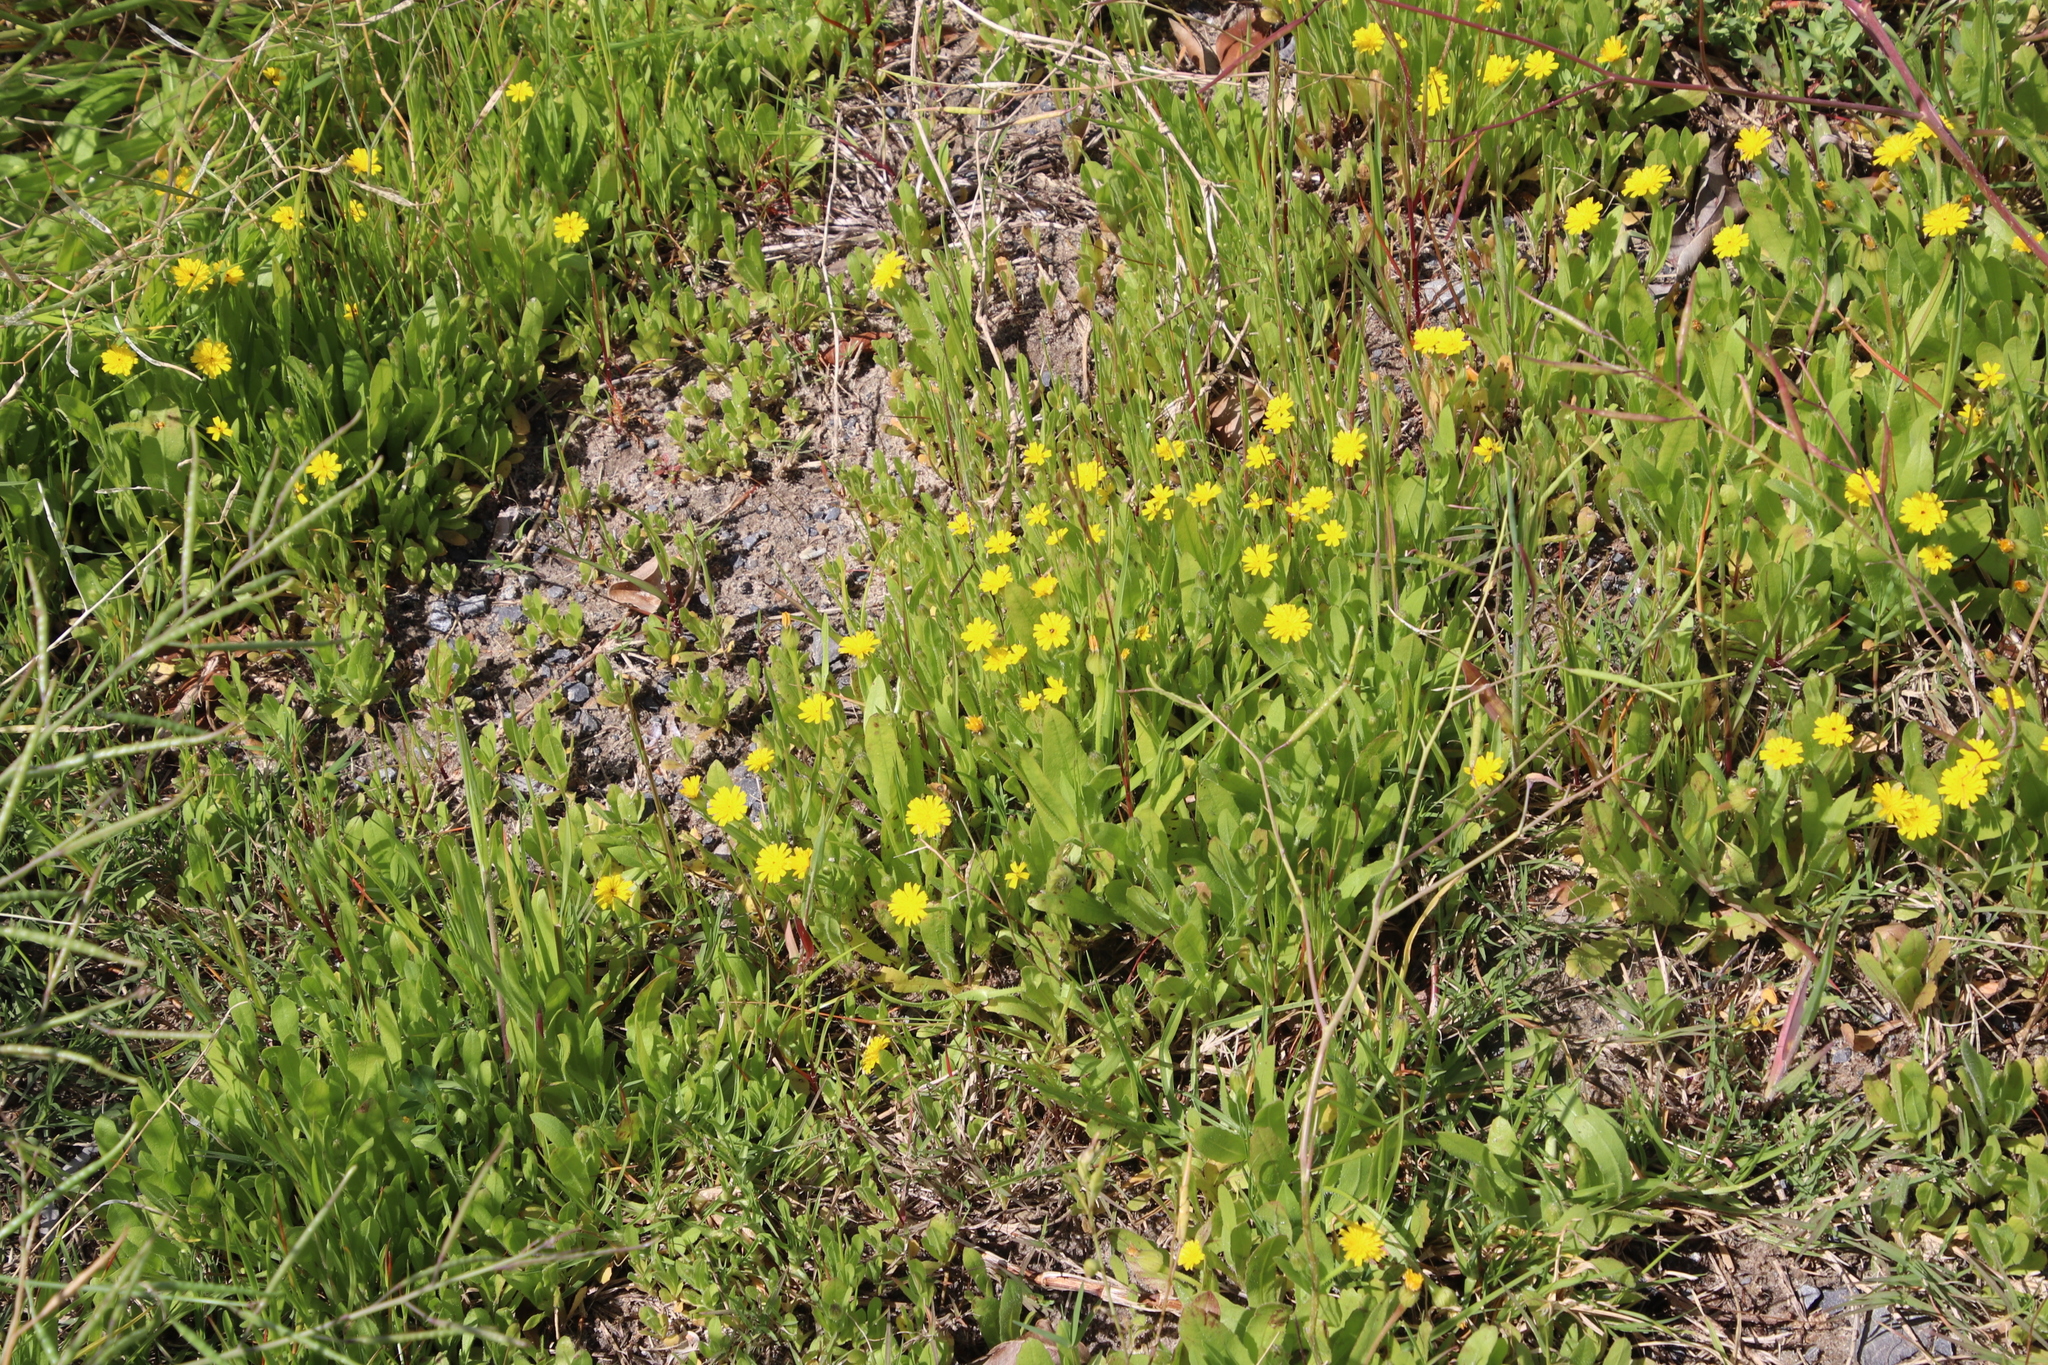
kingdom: Plantae
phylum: Tracheophyta
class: Magnoliopsida
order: Asterales
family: Asteraceae
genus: Hedypnois
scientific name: Hedypnois rhagadioloides
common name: Cretan weed
